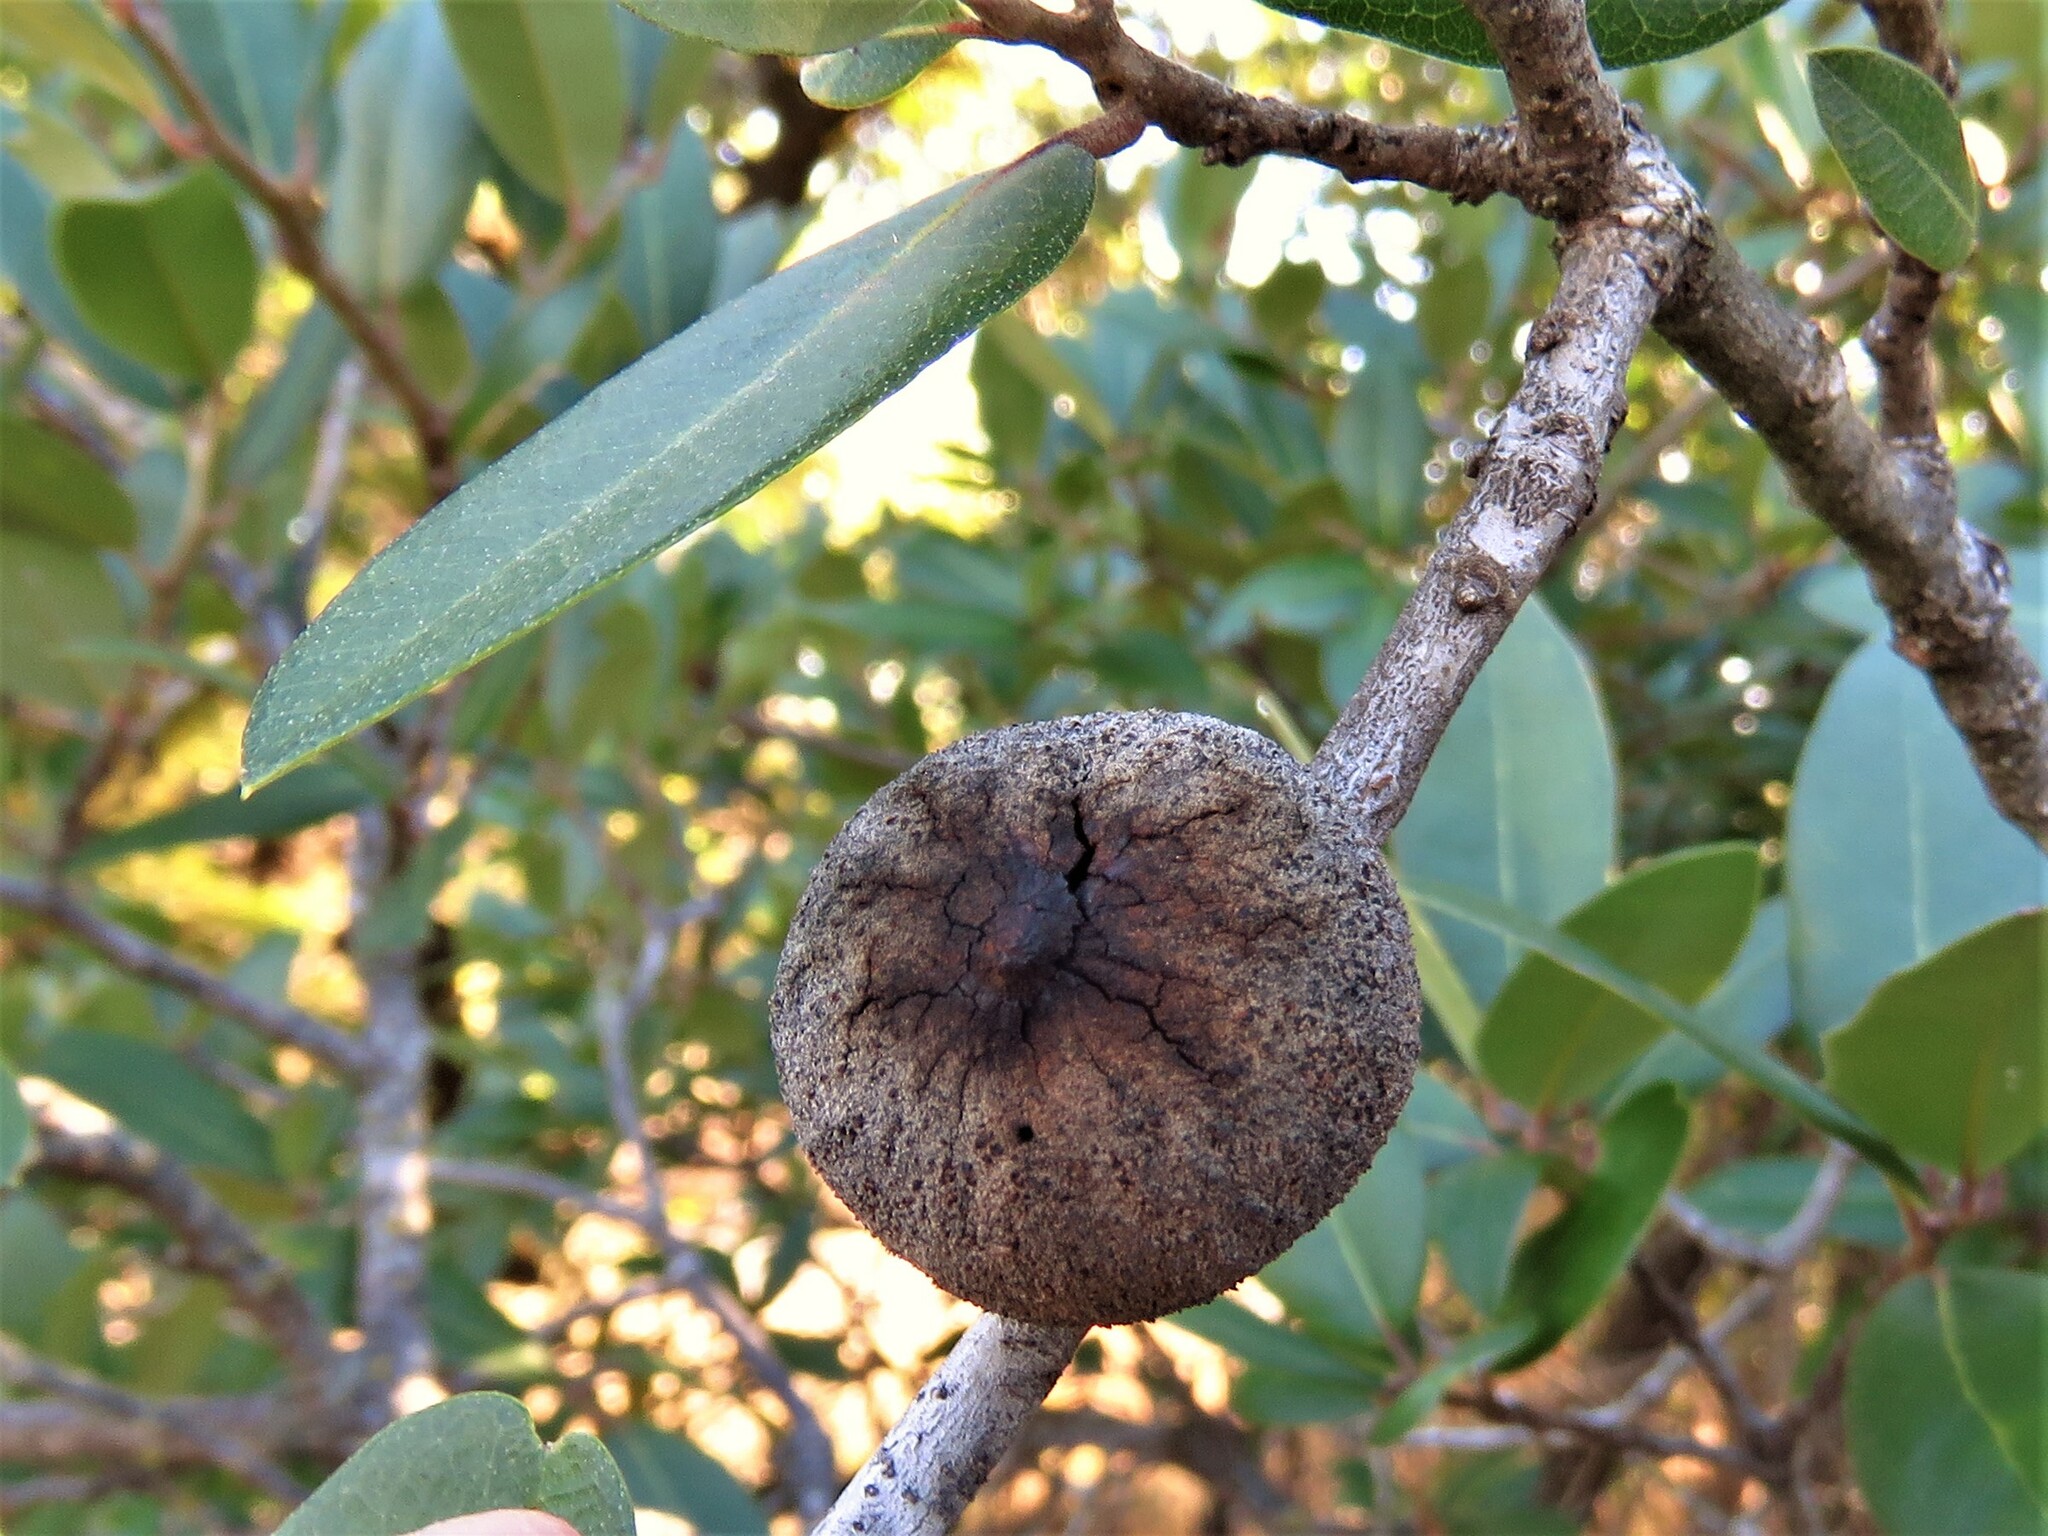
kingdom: Animalia
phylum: Arthropoda
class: Insecta
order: Hymenoptera
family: Cynipidae
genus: Disholcaspis
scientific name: Disholcaspis
